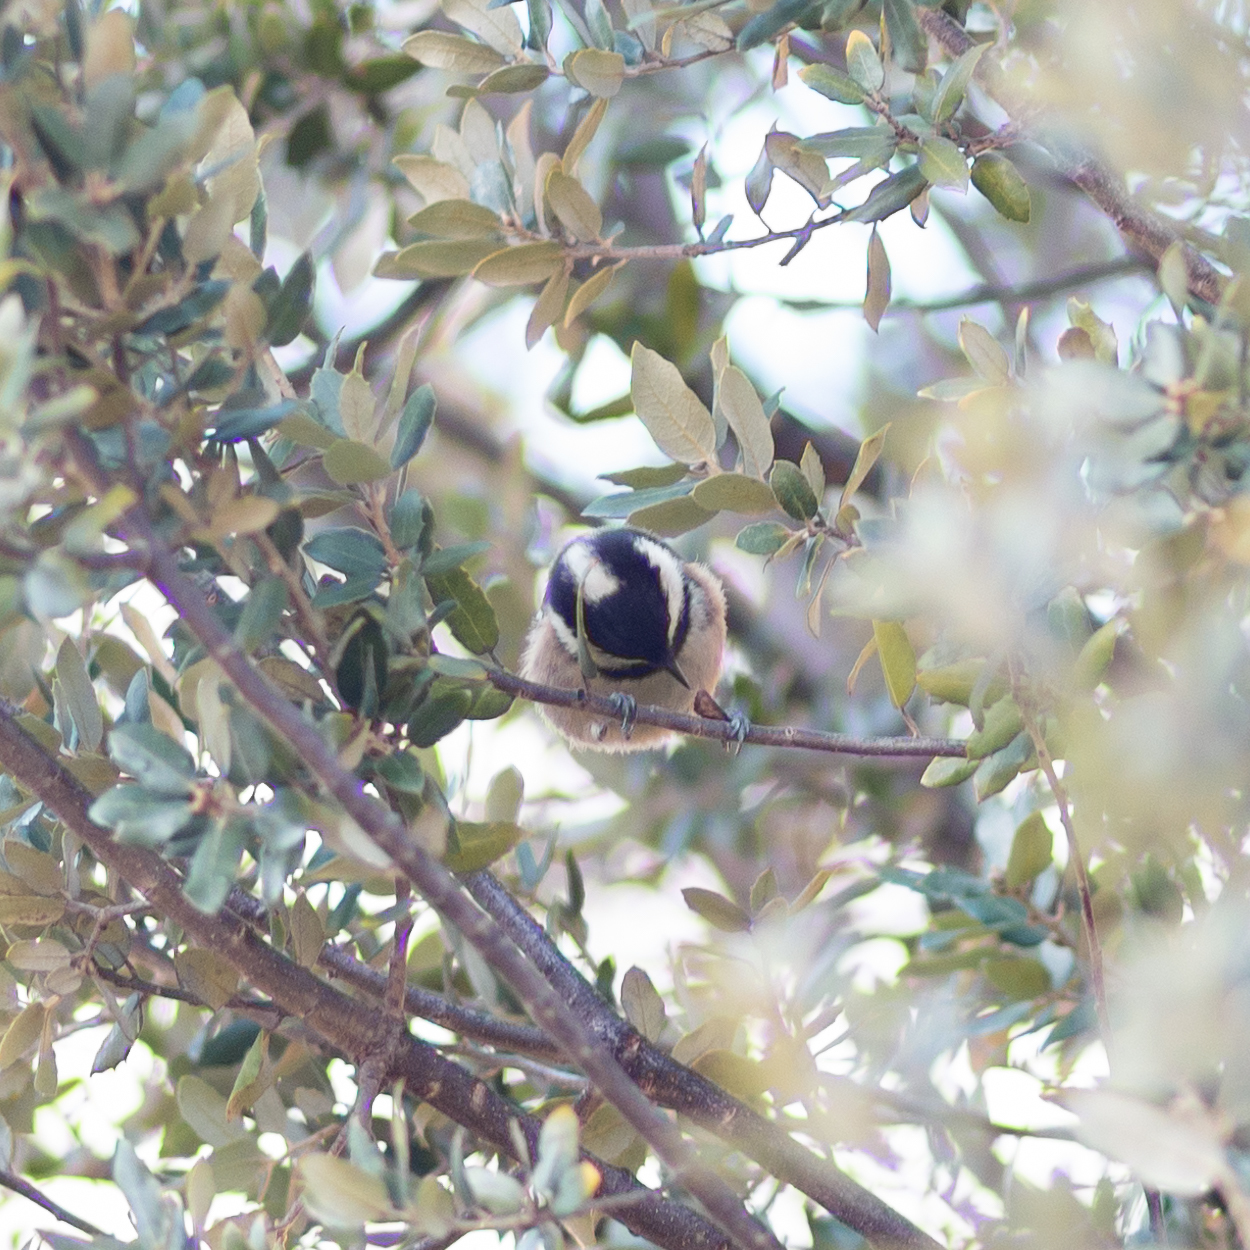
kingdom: Animalia
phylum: Chordata
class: Aves
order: Passeriformes
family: Paridae
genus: Periparus
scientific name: Periparus ater
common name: Coal tit
